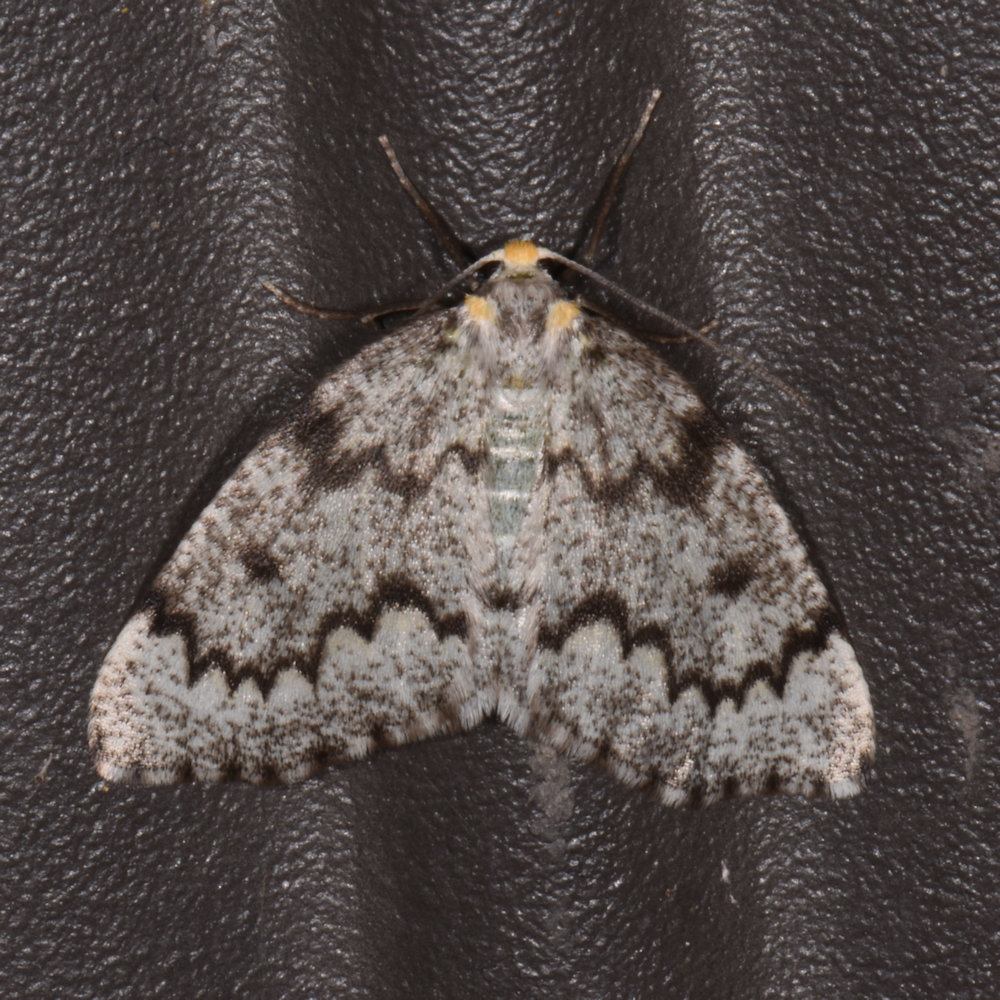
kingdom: Animalia
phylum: Arthropoda
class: Insecta
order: Lepidoptera
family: Geometridae
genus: Nepytia
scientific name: Nepytia canosaria
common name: False hemlock looper
